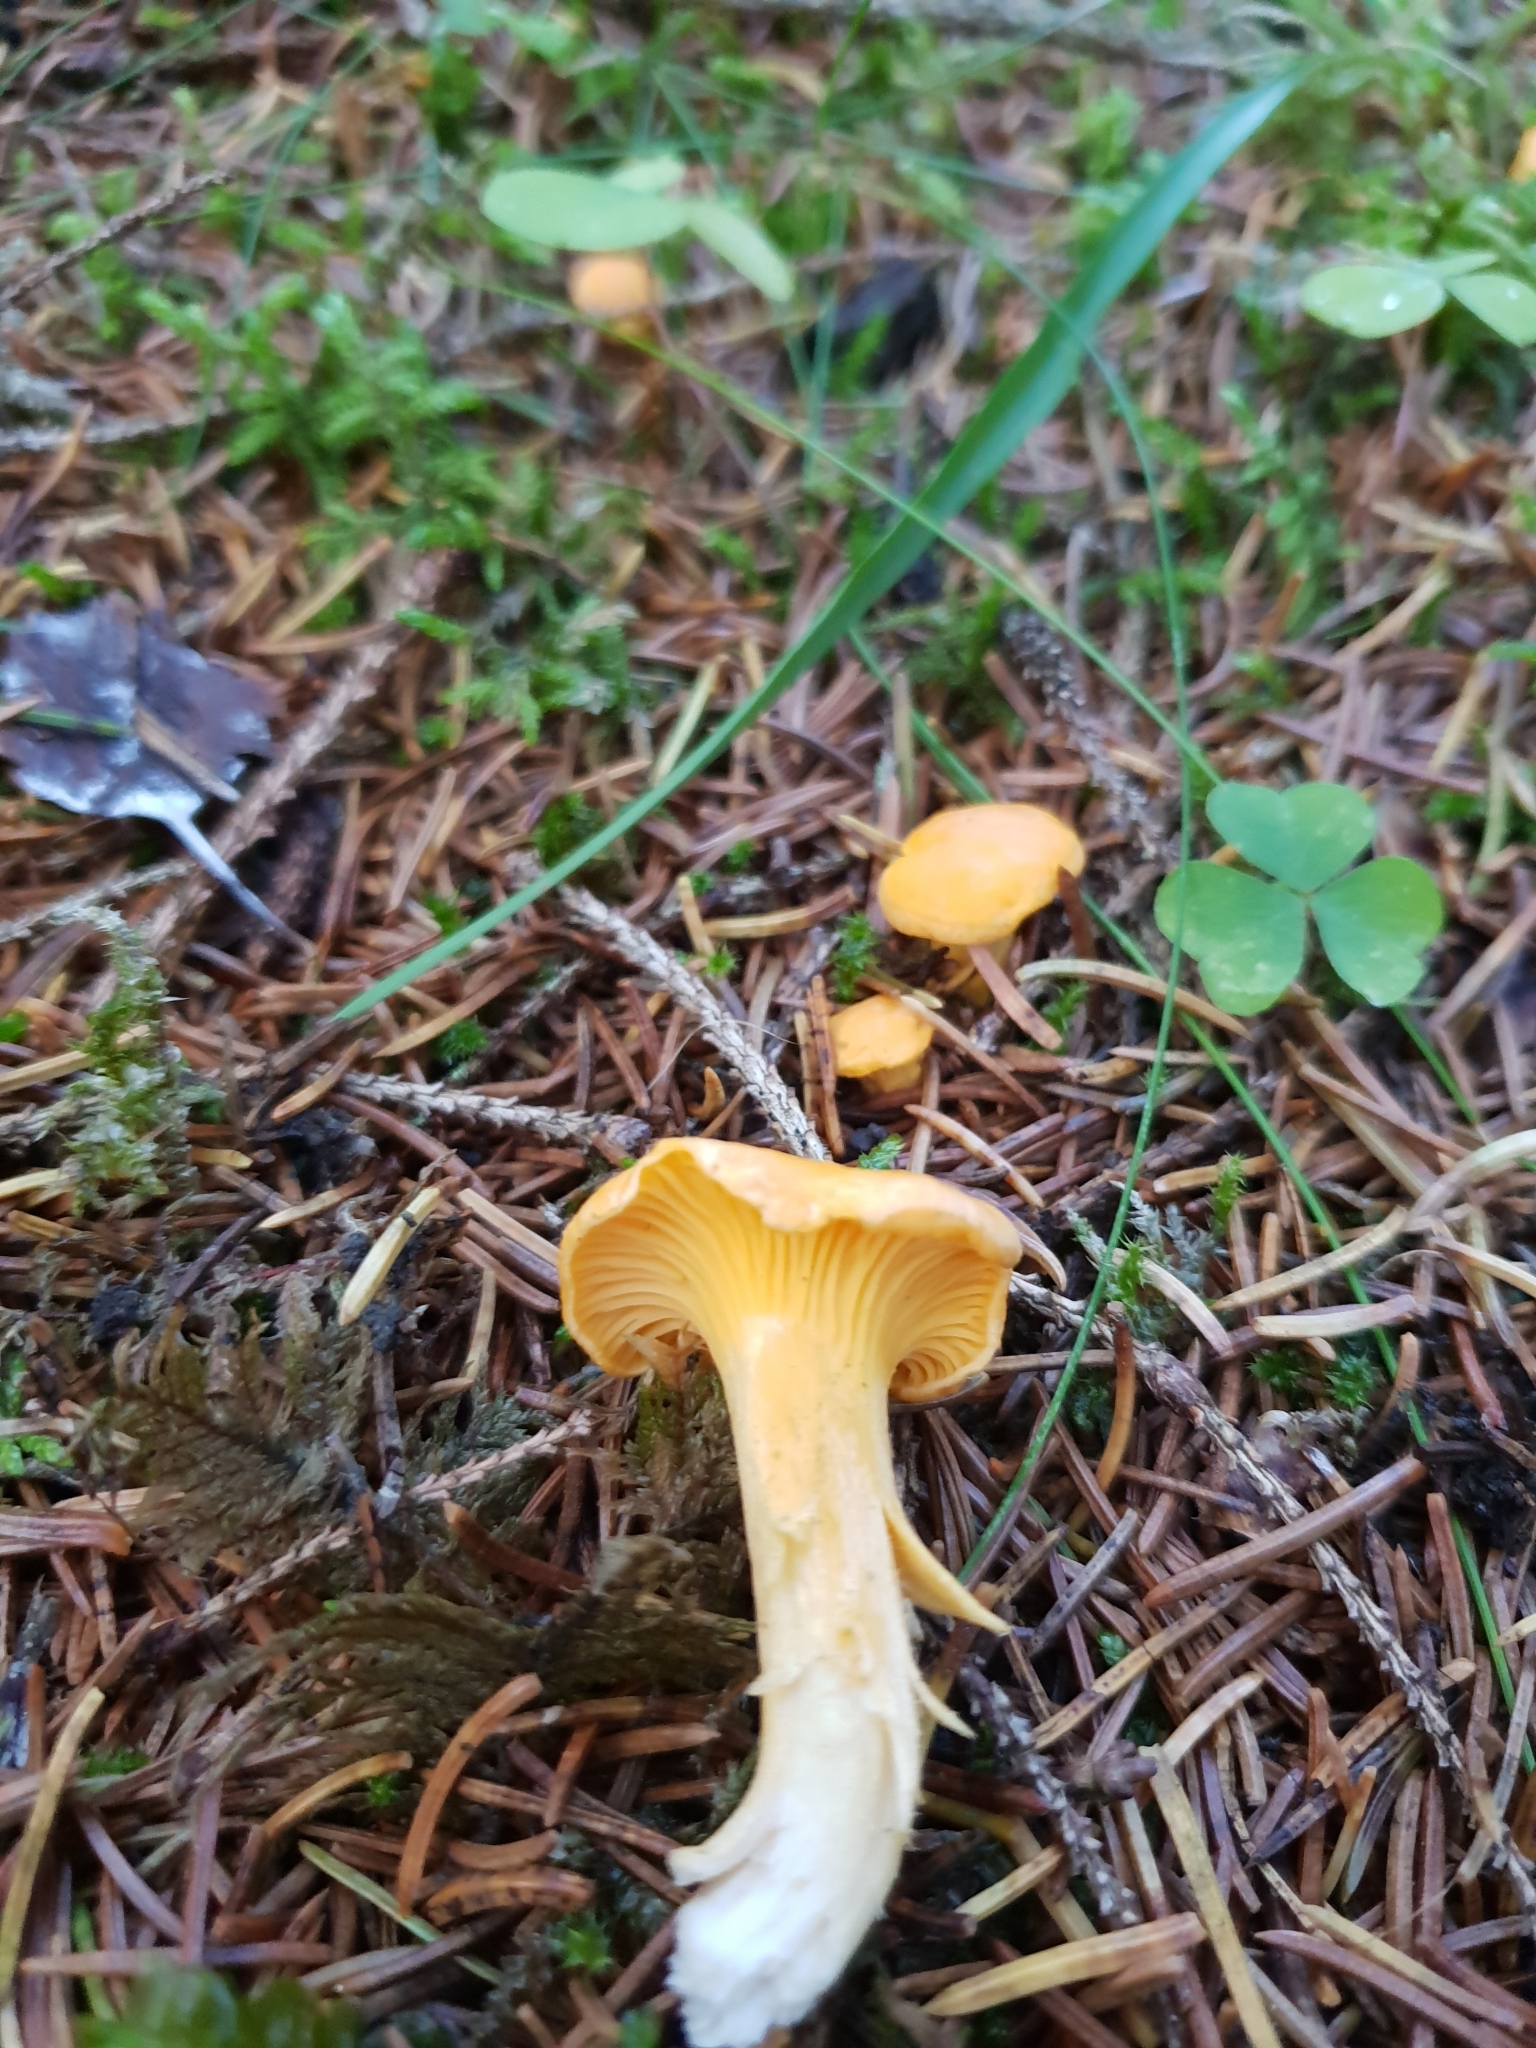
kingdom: Fungi
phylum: Basidiomycota
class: Agaricomycetes
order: Cantharellales
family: Hydnaceae
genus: Cantharellus
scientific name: Cantharellus cibarius
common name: Chanterelle
